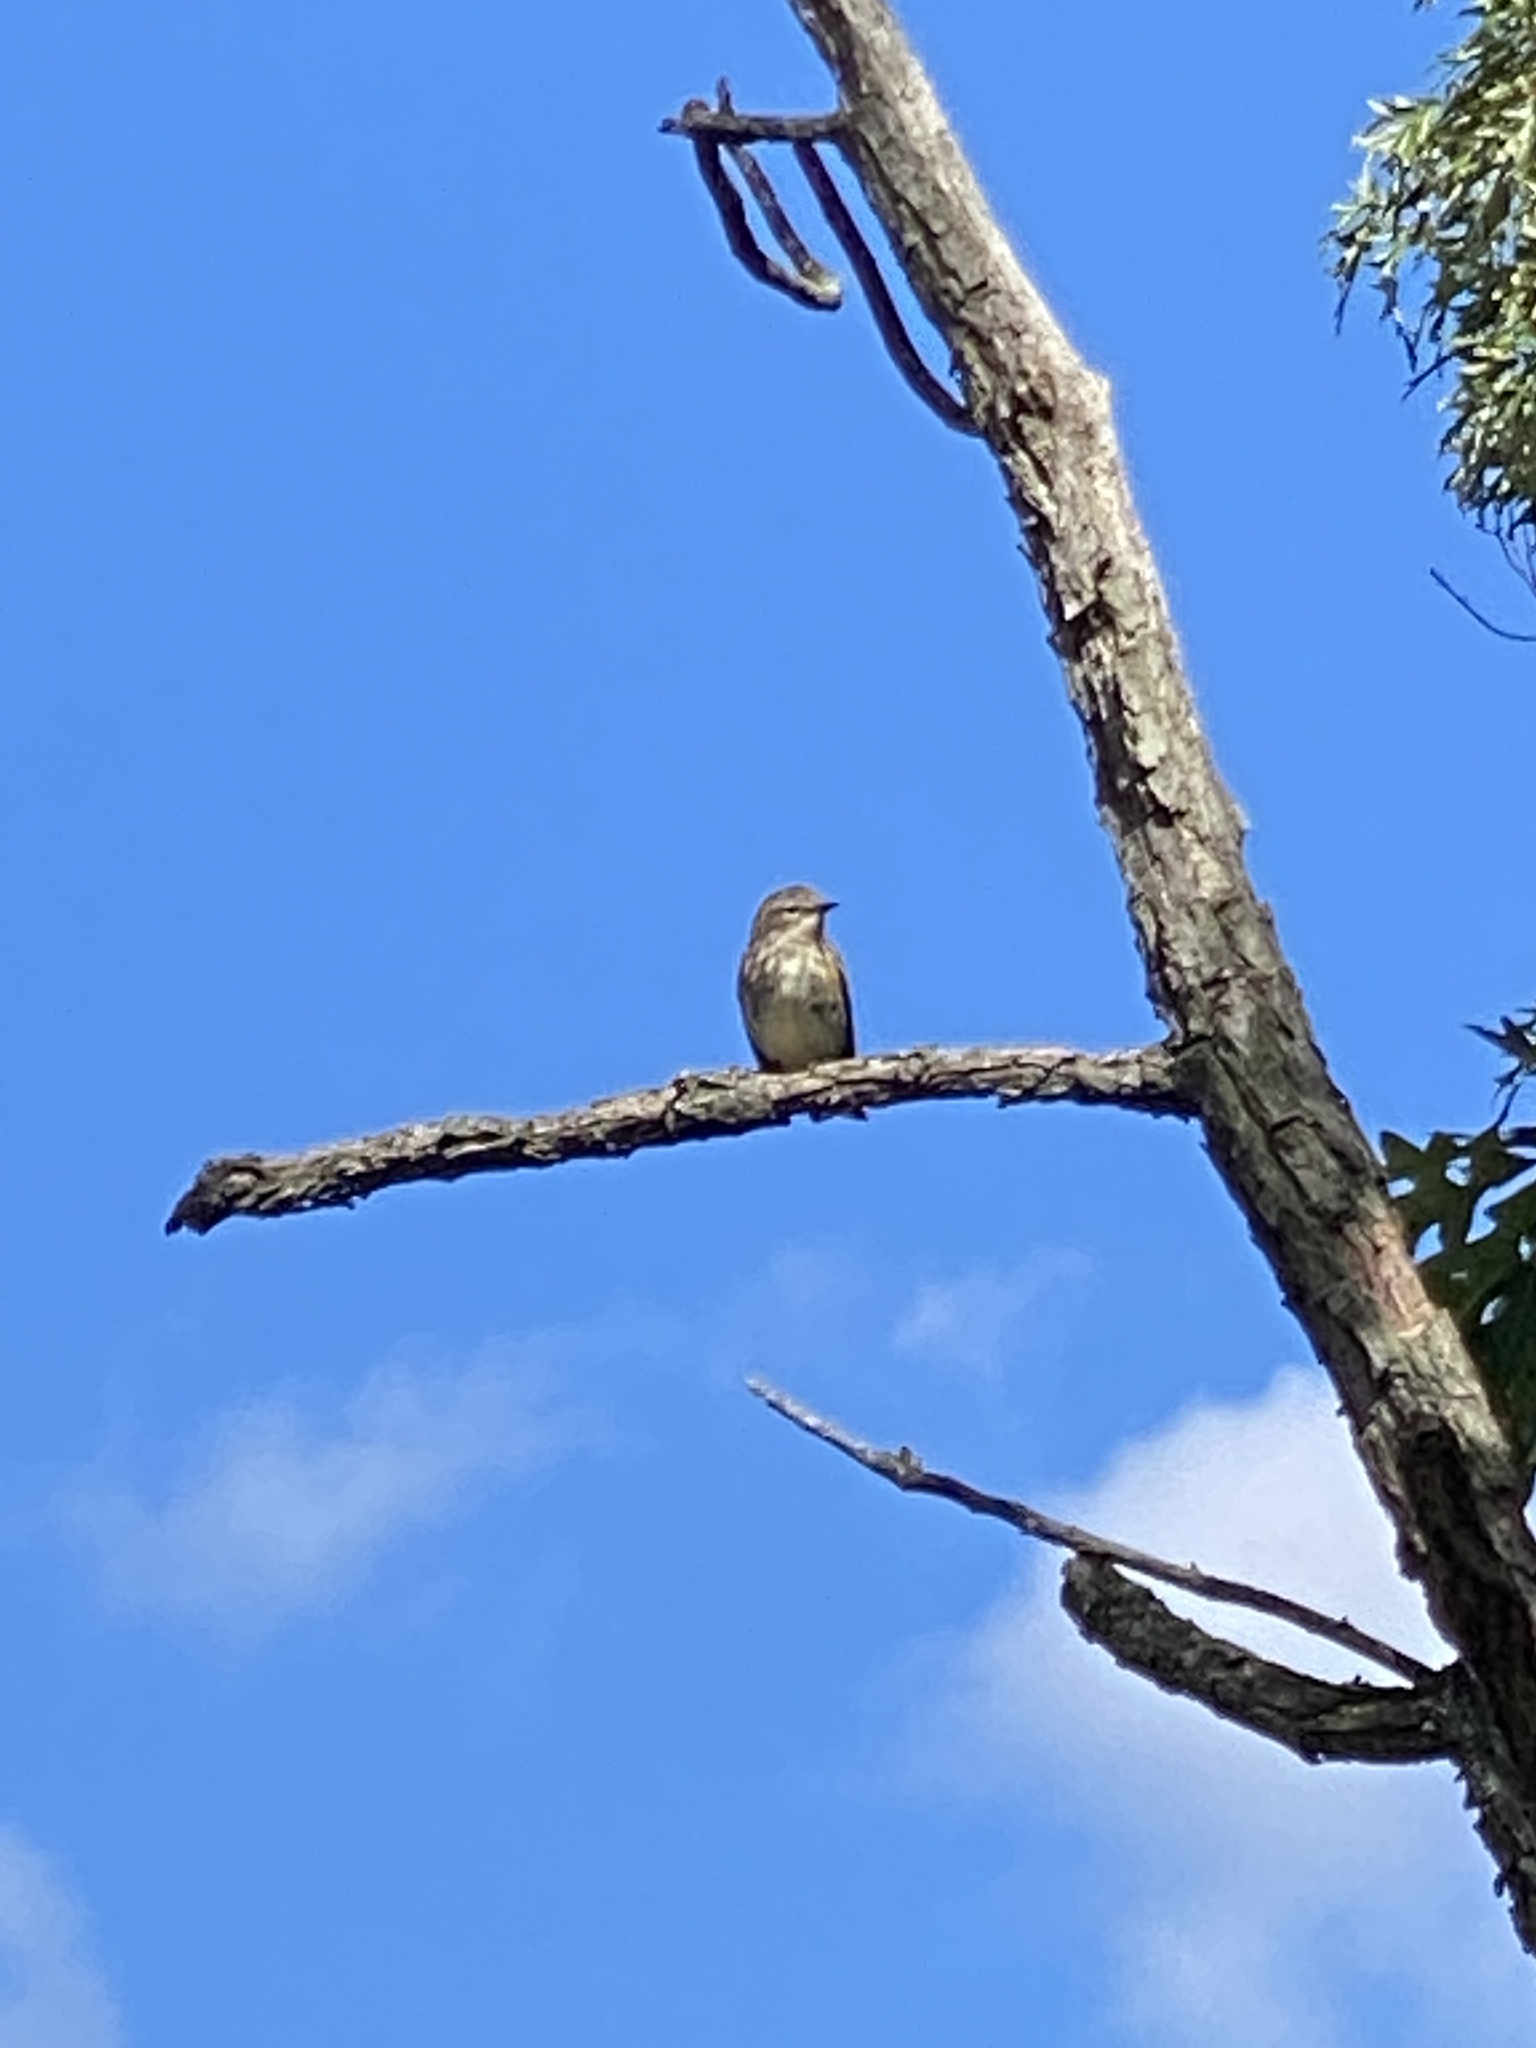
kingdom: Animalia
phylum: Chordata
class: Aves
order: Passeriformes
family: Parulidae
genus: Setophaga
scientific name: Setophaga coronata
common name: Myrtle warbler
